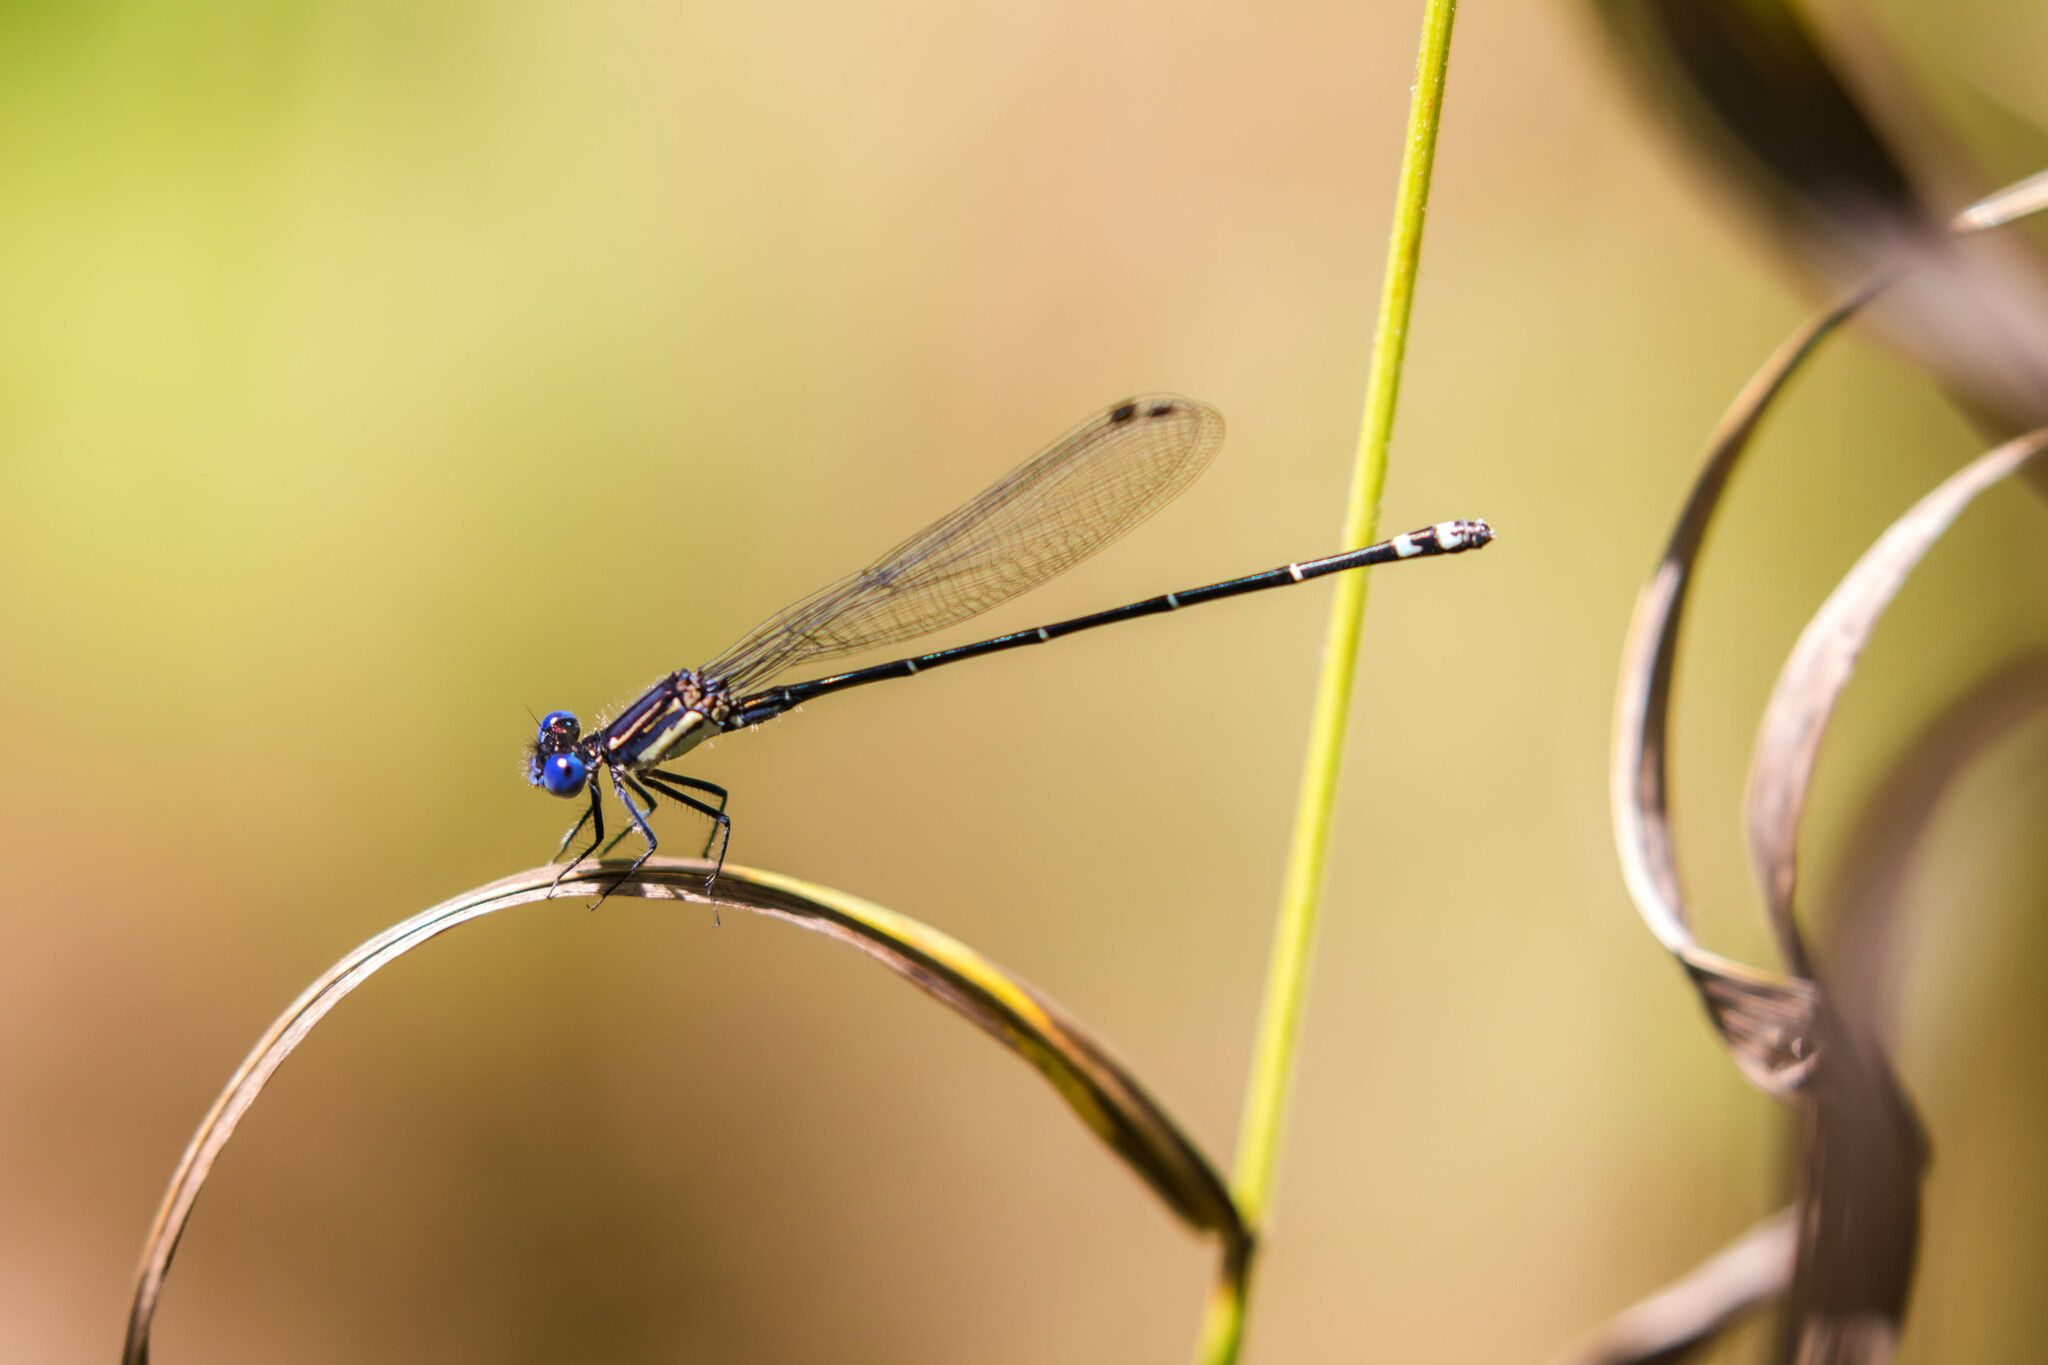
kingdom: Animalia
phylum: Arthropoda
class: Insecta
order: Odonata
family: Coenagrionidae
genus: Argia
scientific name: Argia translata
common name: Dusky dancer
